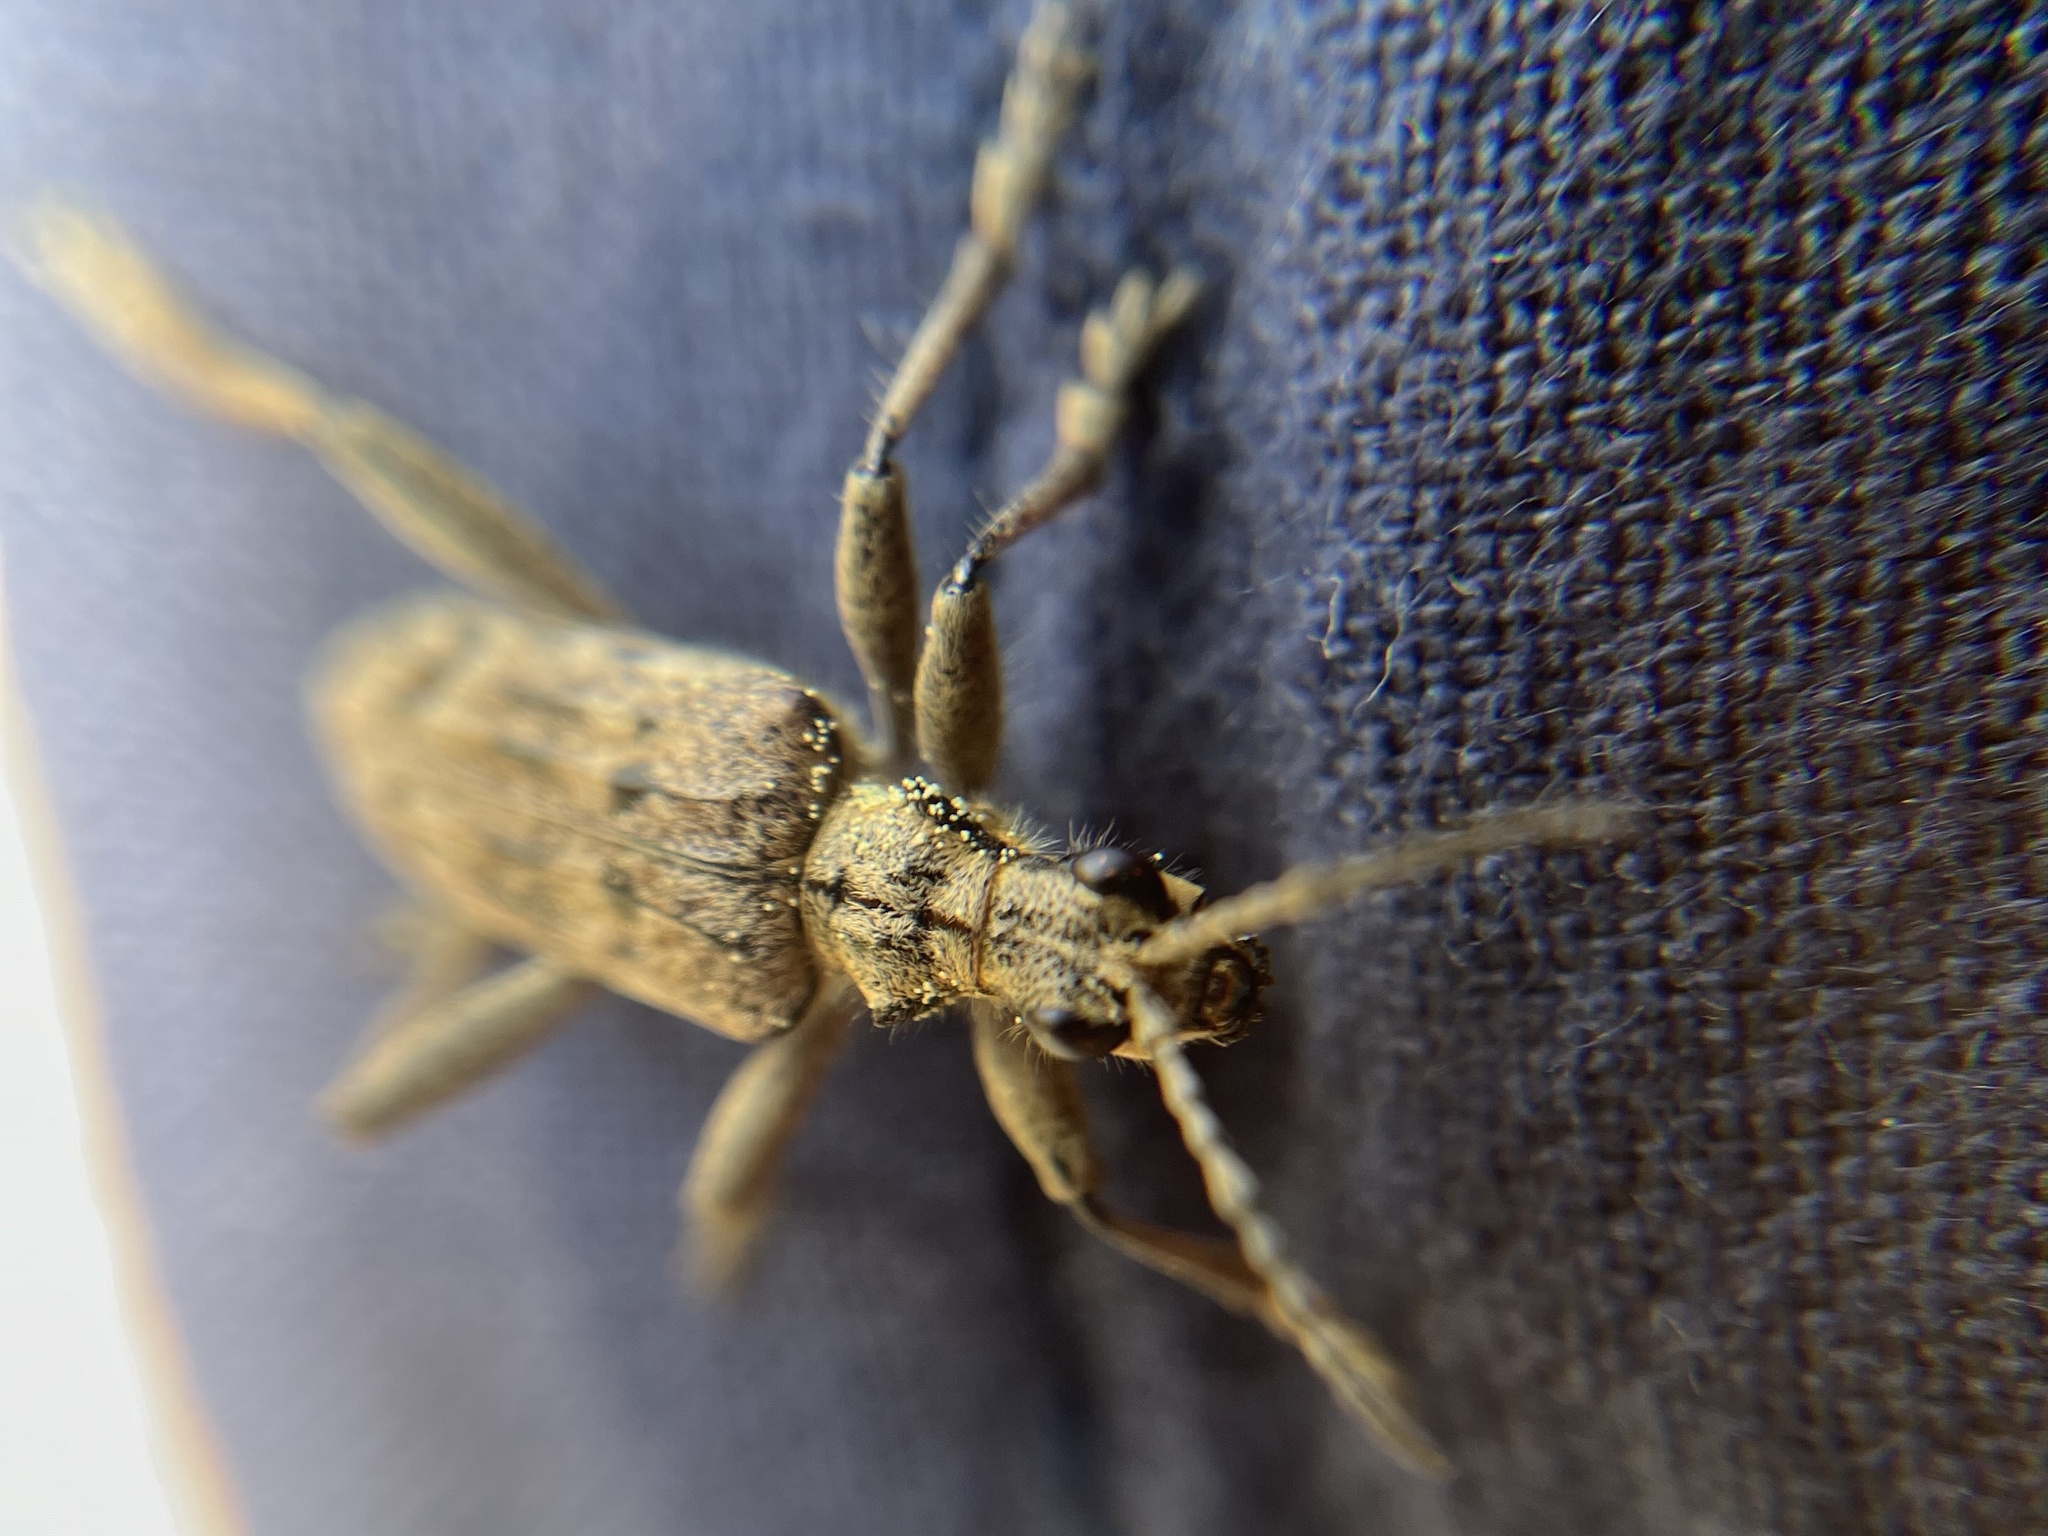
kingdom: Animalia
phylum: Arthropoda
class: Insecta
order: Coleoptera
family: Cerambycidae
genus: Rhagium
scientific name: Rhagium inquisitor
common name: Ribbed pine borer
